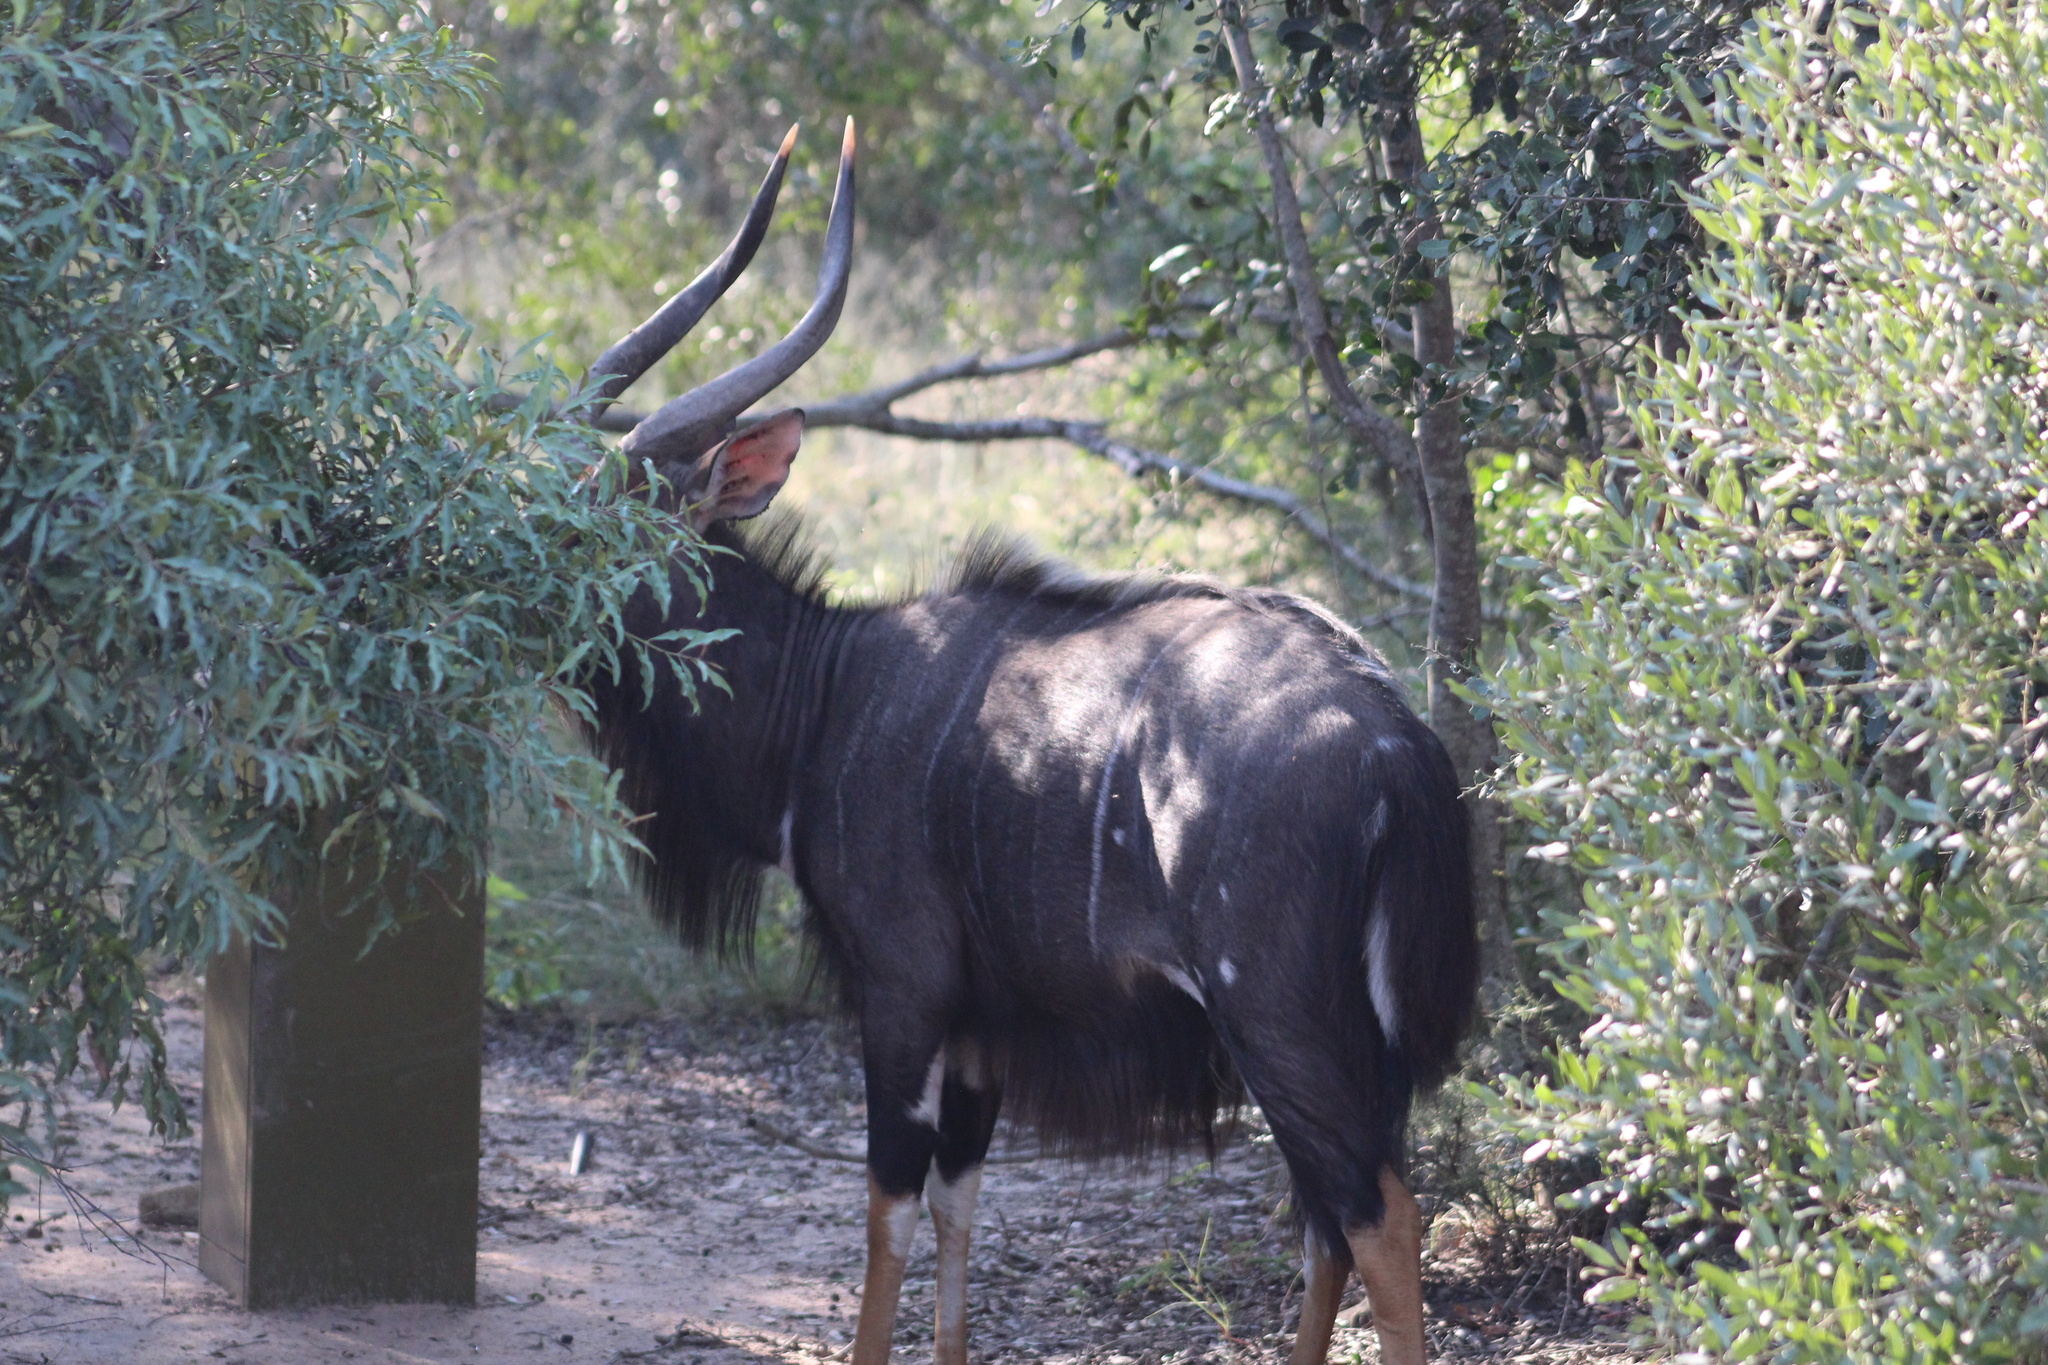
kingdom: Animalia
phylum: Chordata
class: Mammalia
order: Artiodactyla
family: Bovidae
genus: Tragelaphus
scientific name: Tragelaphus angasii
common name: Nyala
